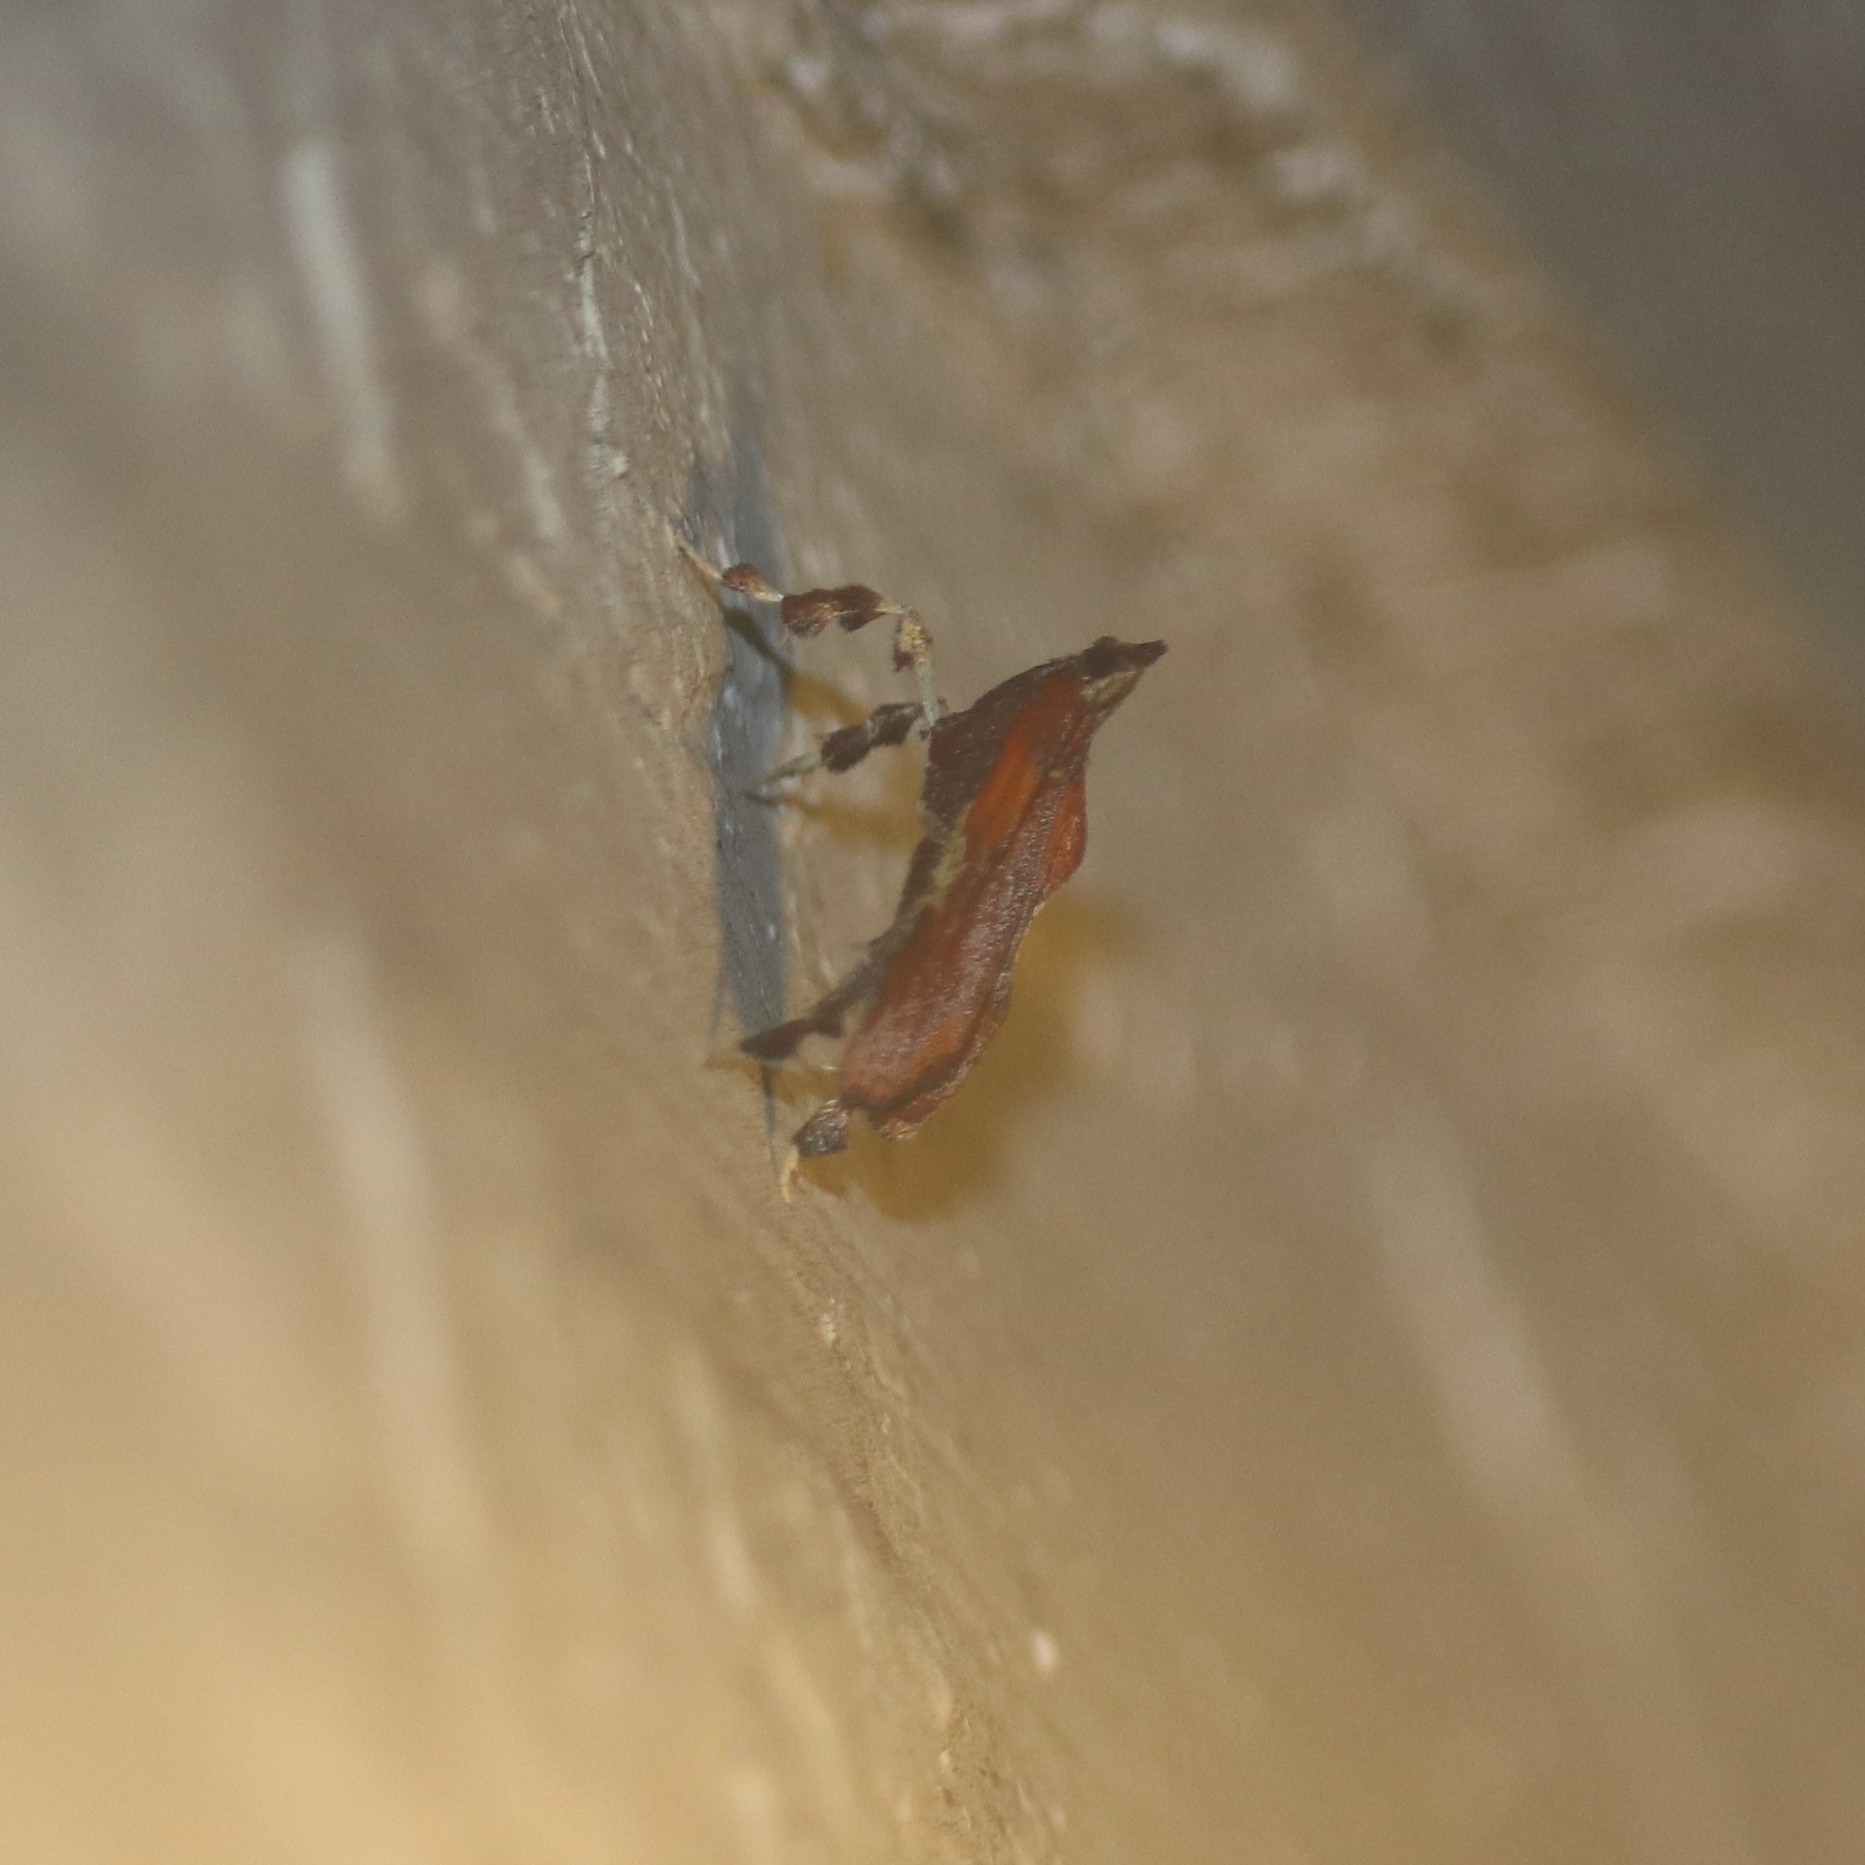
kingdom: Animalia
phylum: Arthropoda
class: Insecta
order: Lepidoptera
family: Pyralidae
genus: Galasa
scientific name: Galasa nigrinodis
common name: Boxwood leaftier moth
